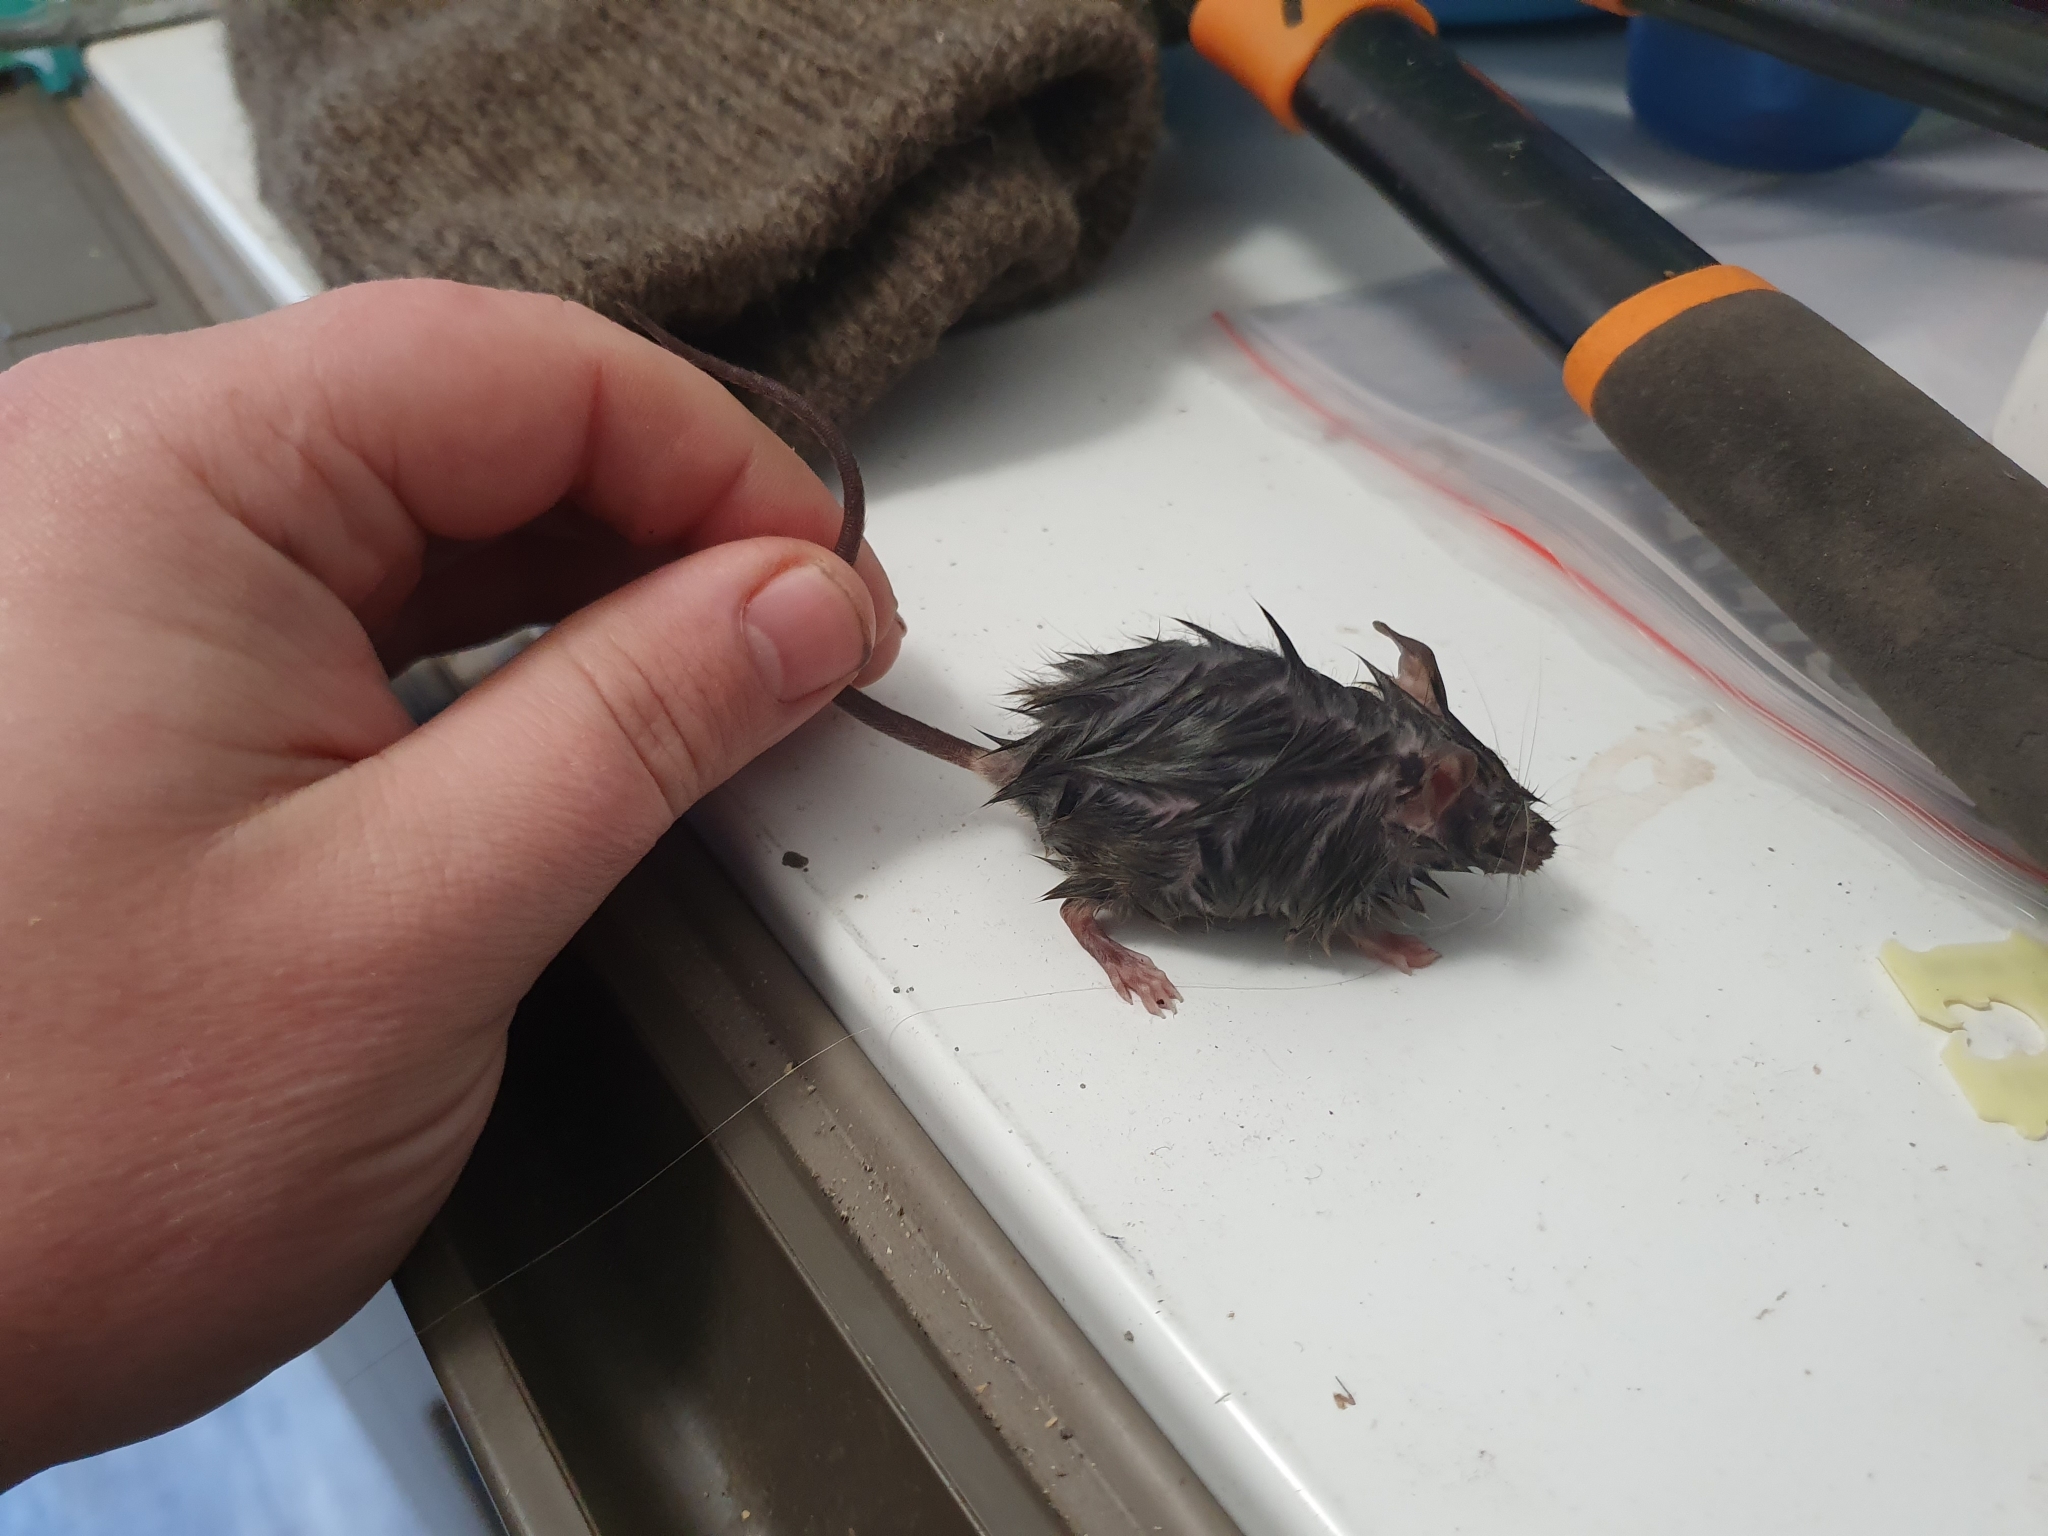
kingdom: Animalia
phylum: Chordata
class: Mammalia
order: Rodentia
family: Muridae
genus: Rattus
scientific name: Rattus rattus
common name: Black rat
